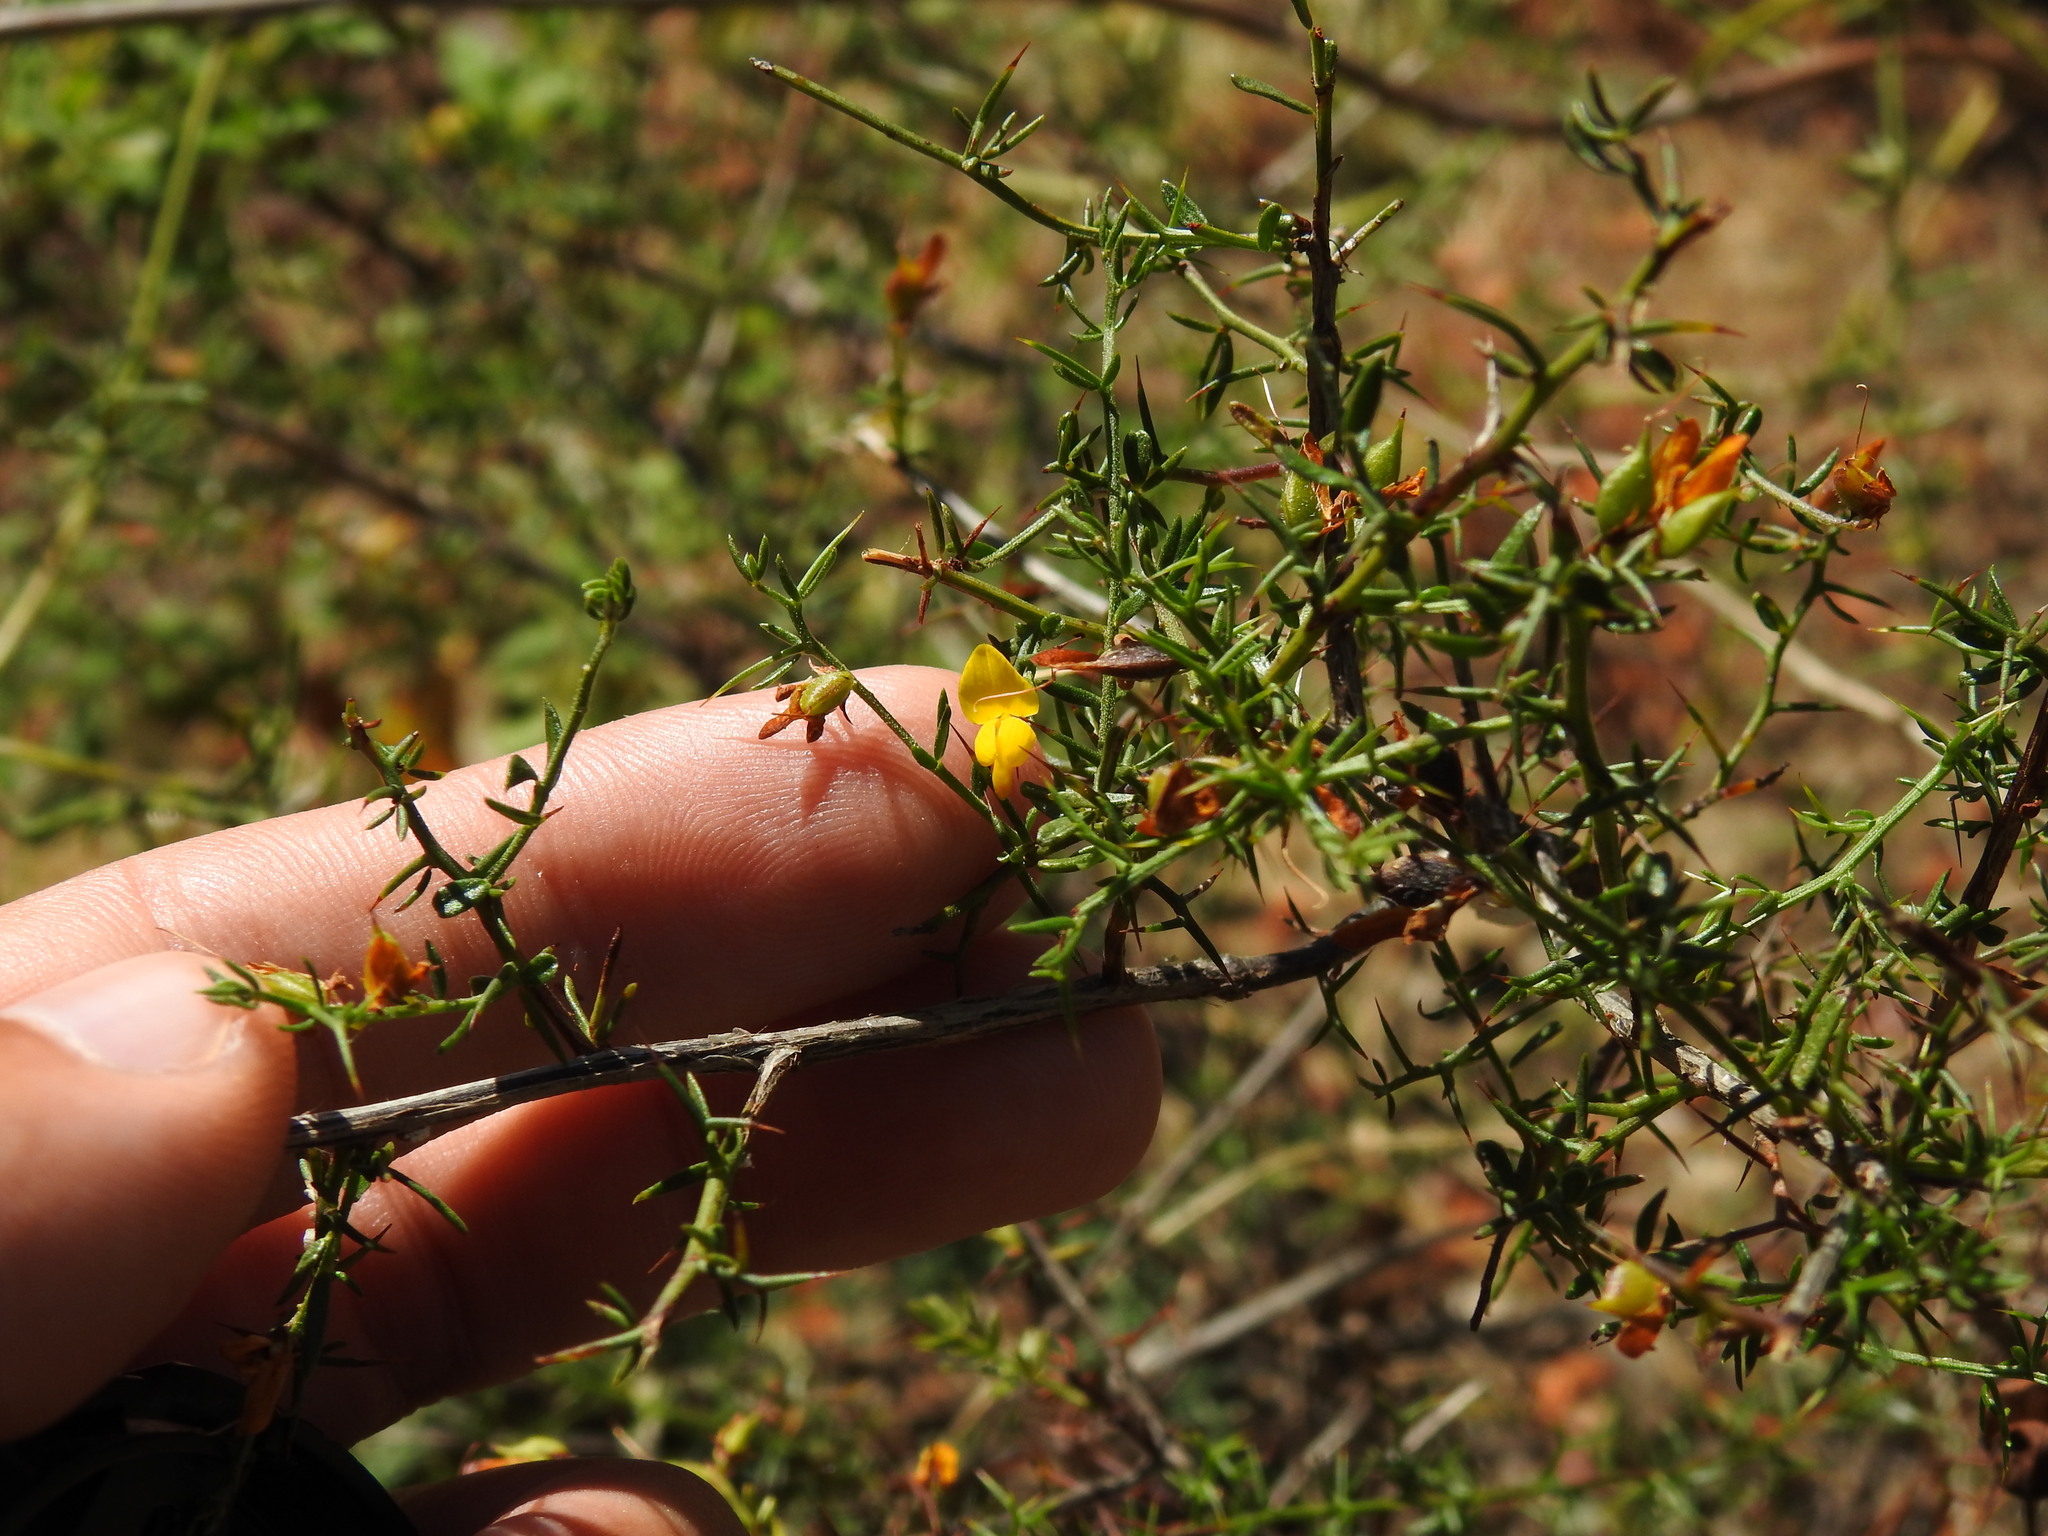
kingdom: Plantae
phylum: Tracheophyta
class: Magnoliopsida
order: Fabales
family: Fabaceae
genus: Genista
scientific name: Genista triacanthos
